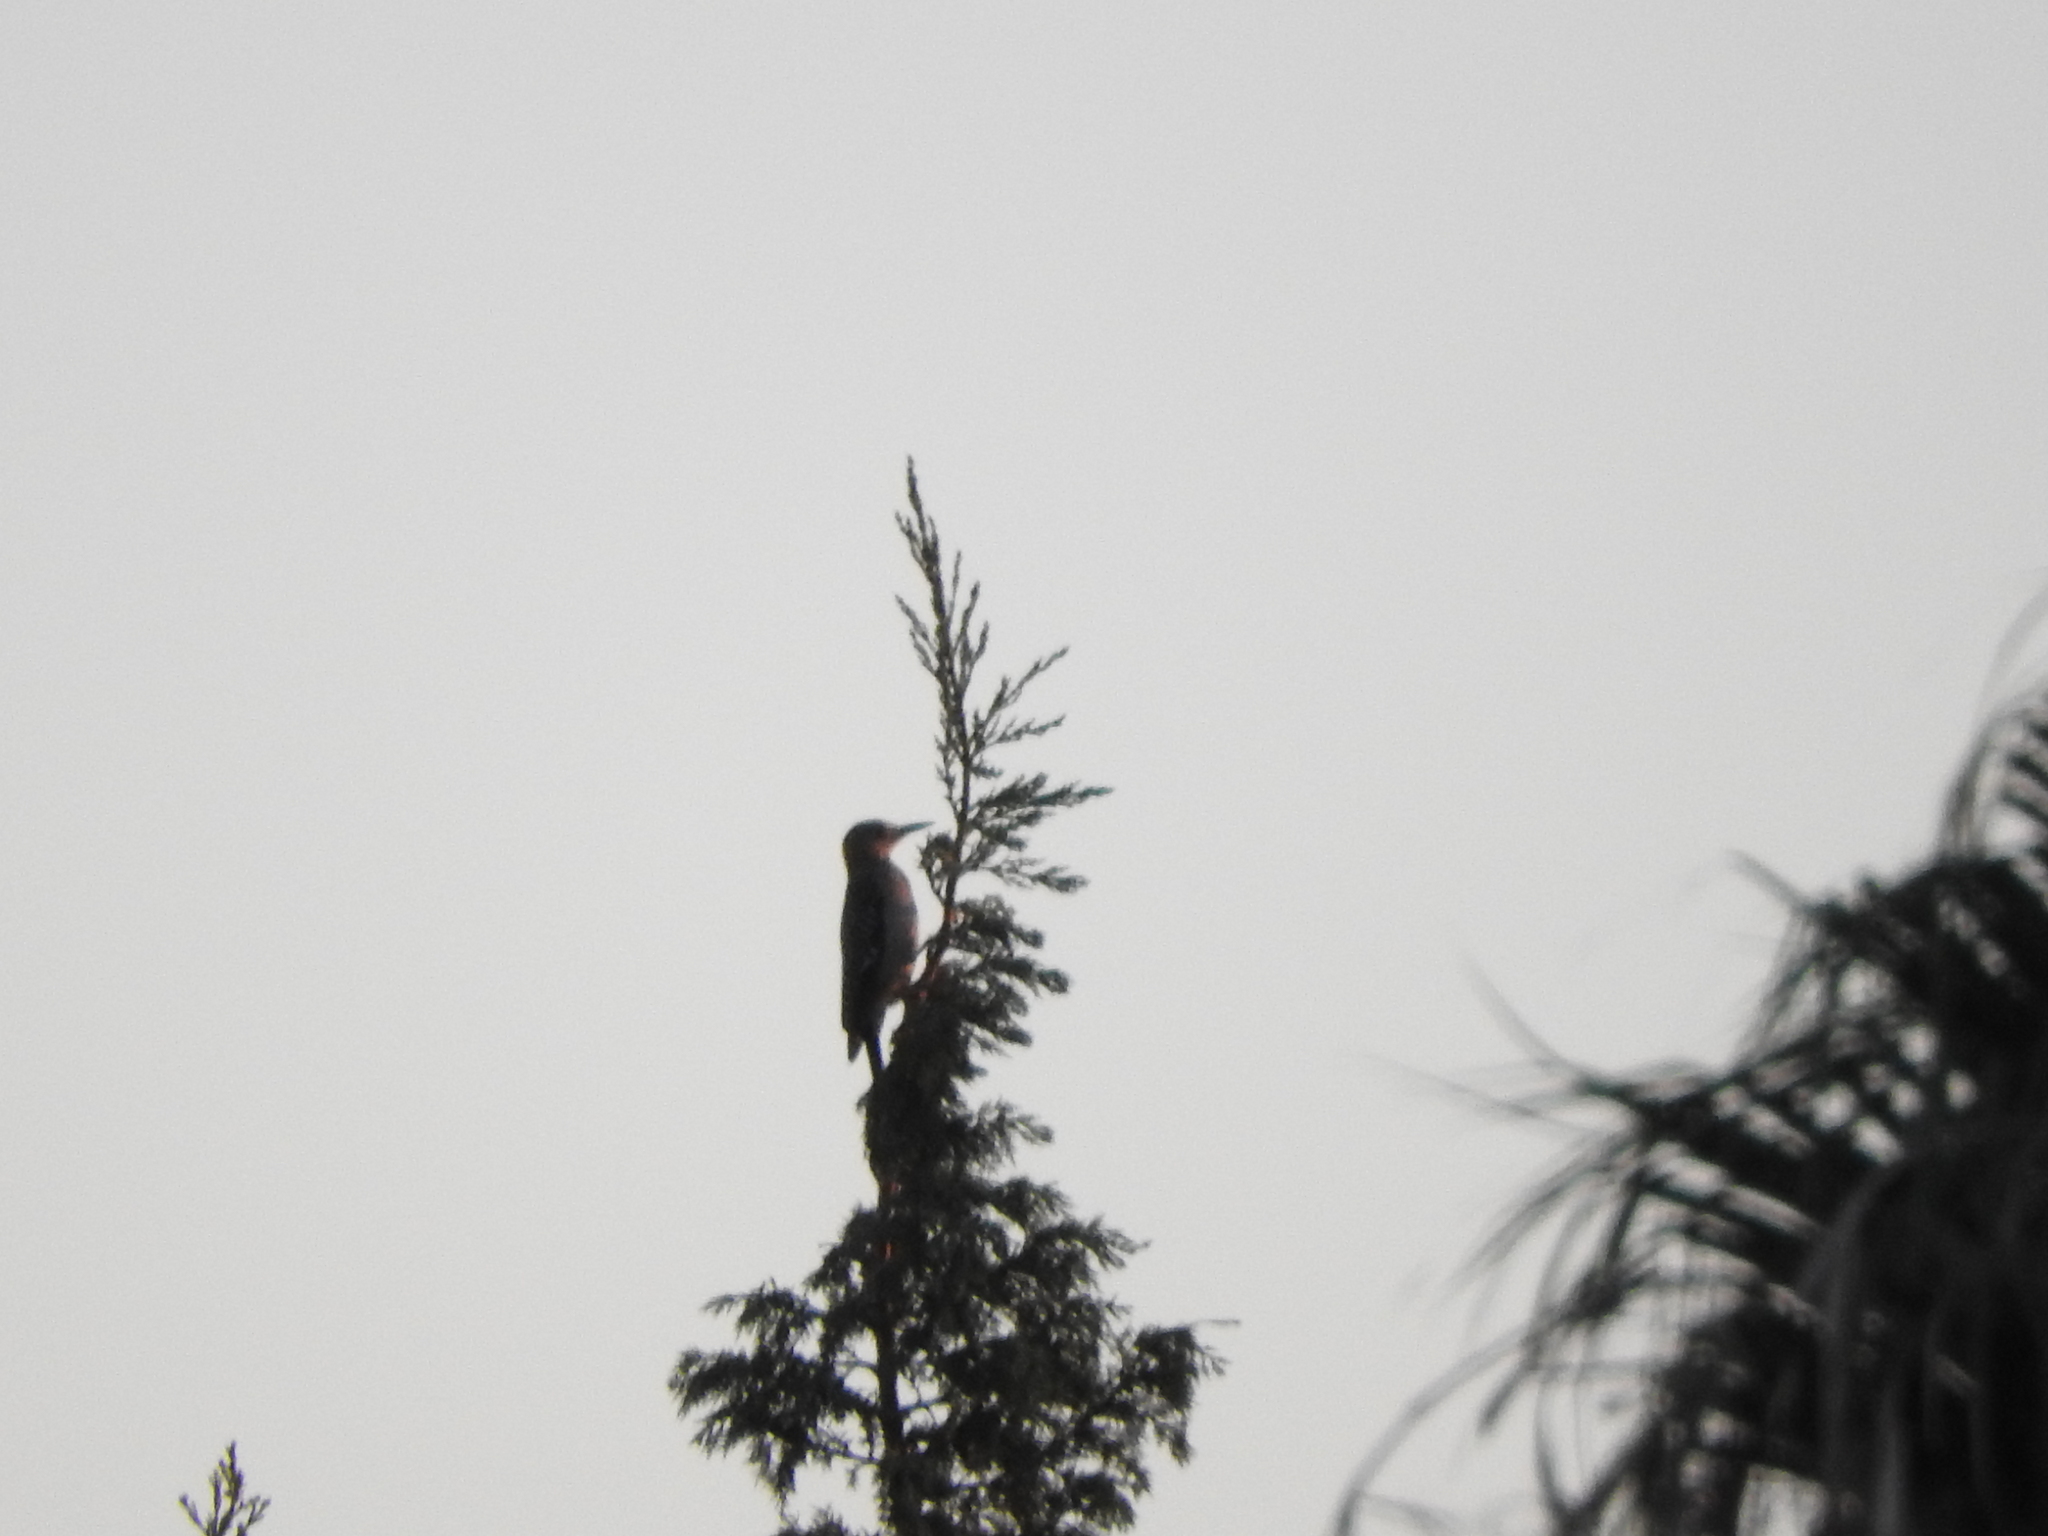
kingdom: Animalia
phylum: Chordata
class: Aves
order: Piciformes
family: Picidae
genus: Melanerpes
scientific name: Melanerpes aurifrons
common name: Golden-fronted woodpecker
